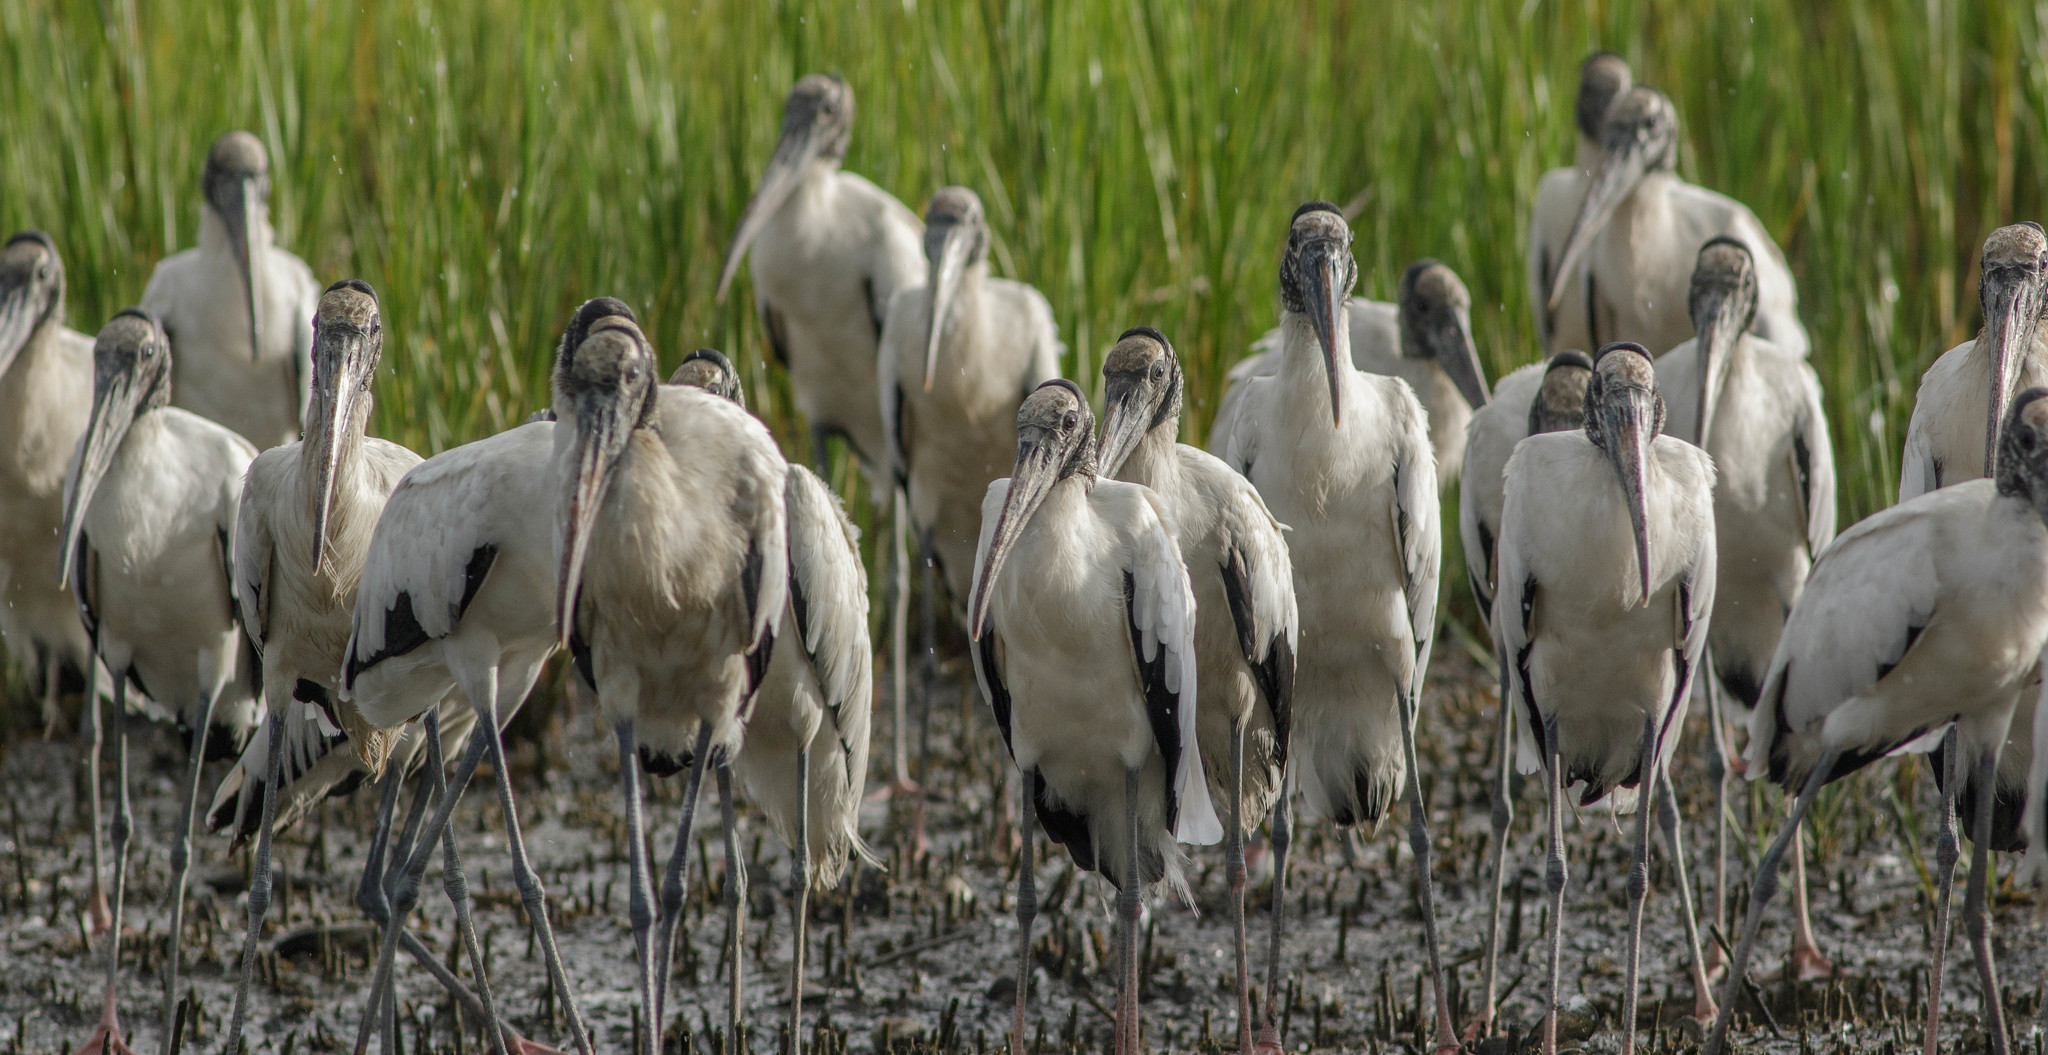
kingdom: Animalia
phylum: Chordata
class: Aves
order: Ciconiiformes
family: Ciconiidae
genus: Mycteria
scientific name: Mycteria americana
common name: Wood stork
